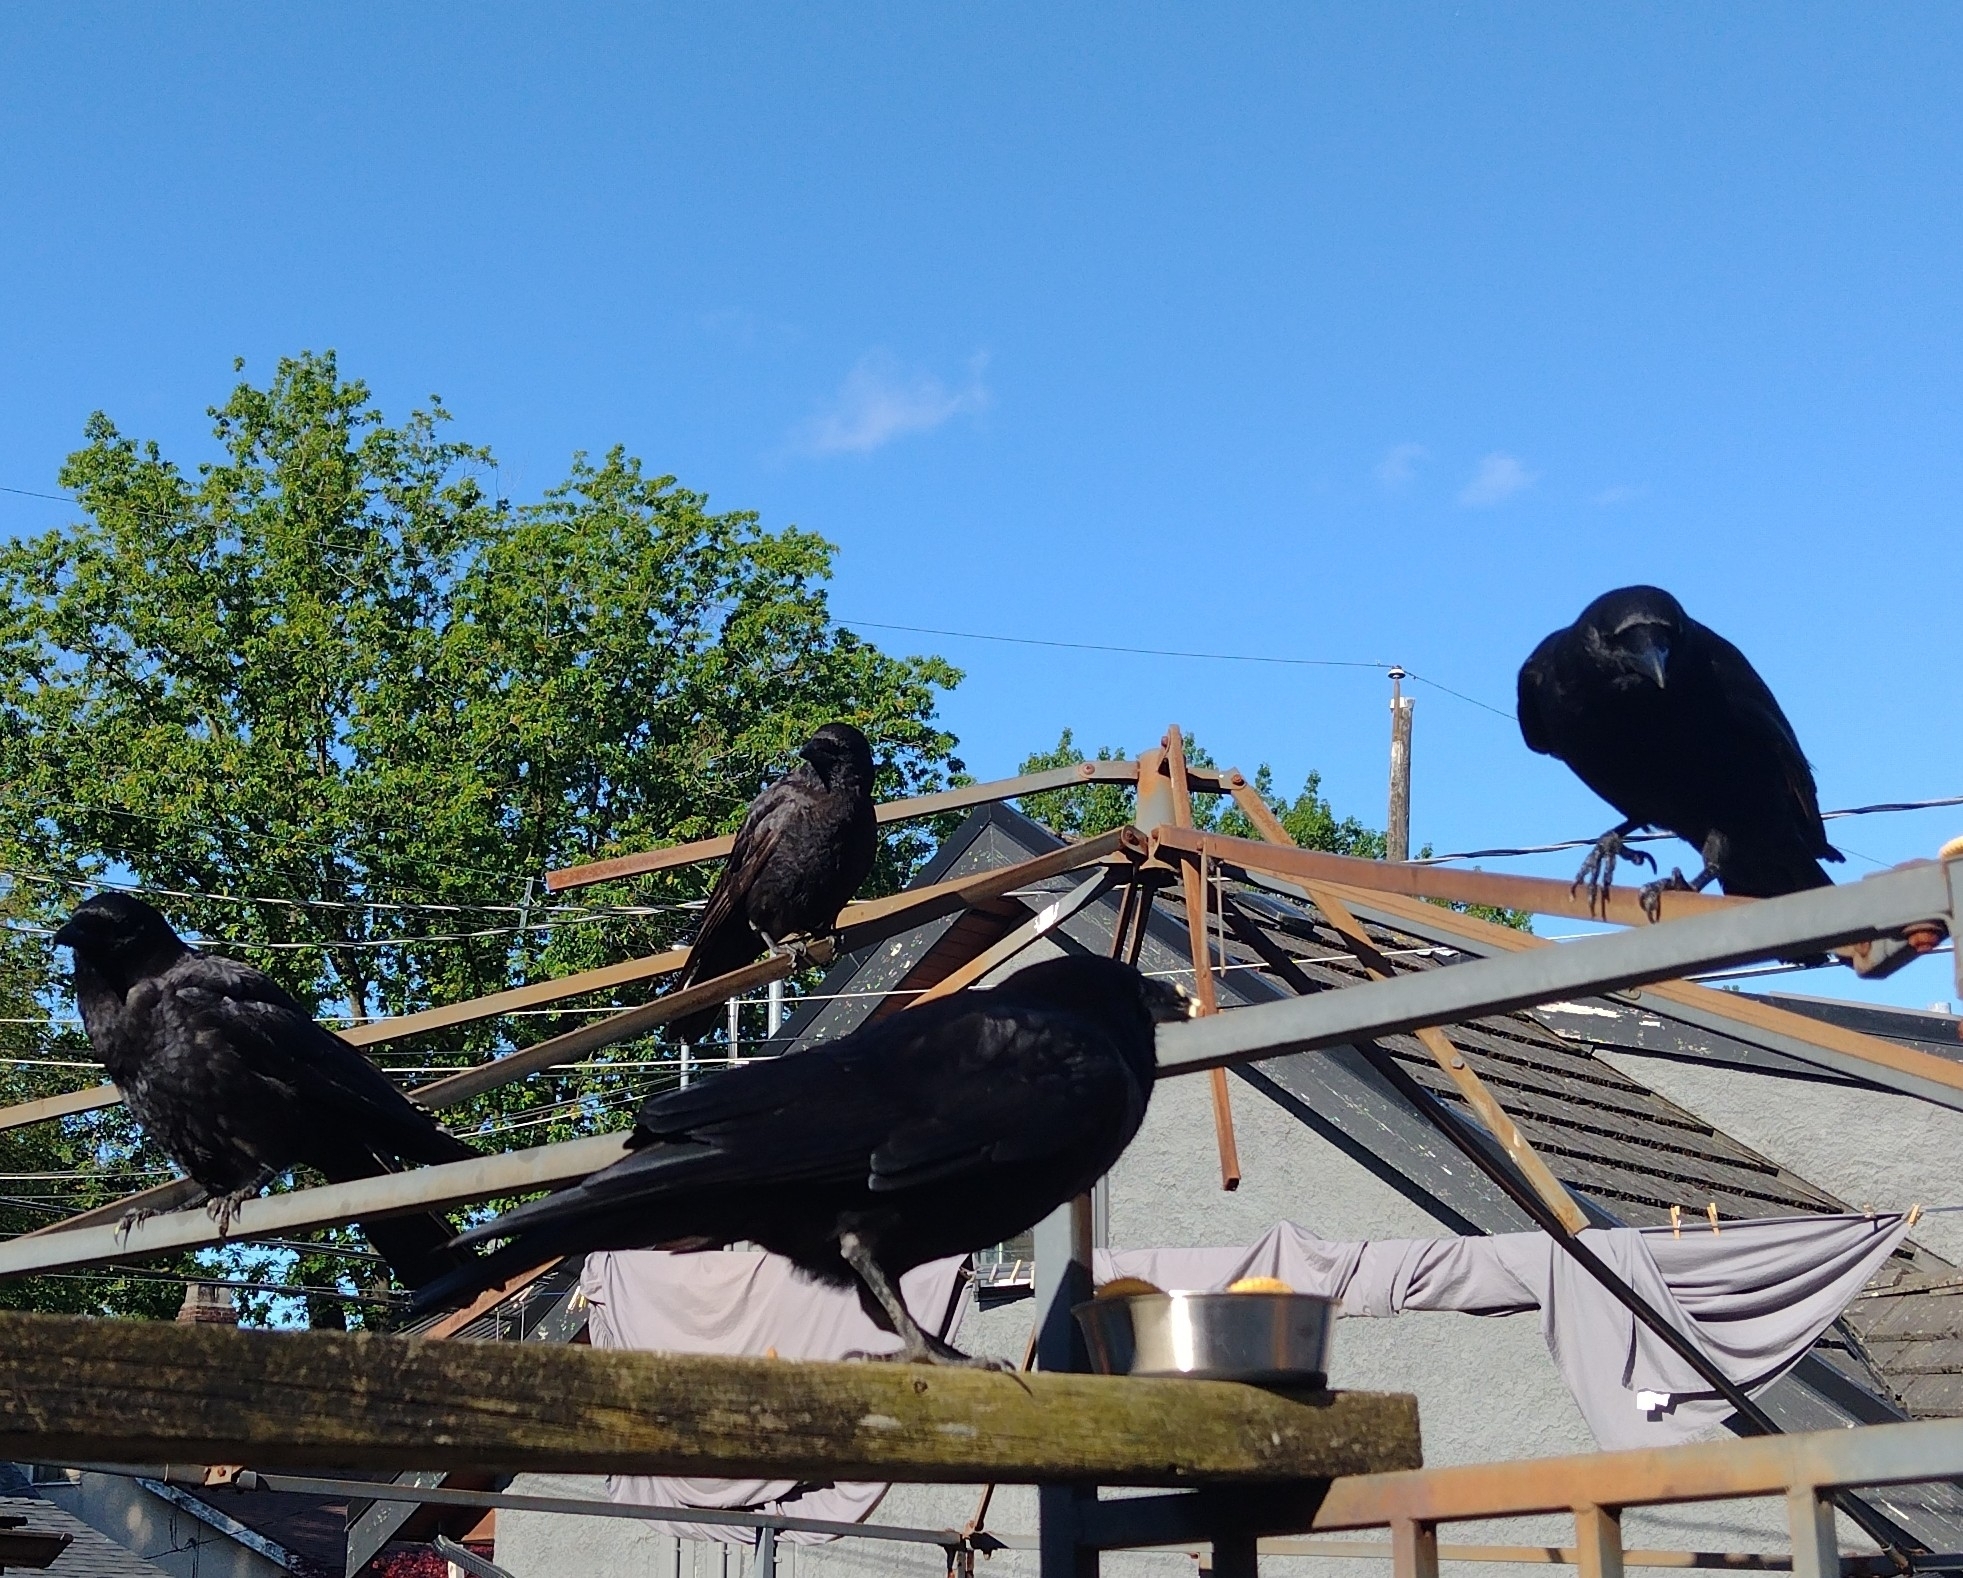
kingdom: Animalia
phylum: Chordata
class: Aves
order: Passeriformes
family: Corvidae
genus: Corvus
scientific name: Corvus brachyrhynchos
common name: American crow
